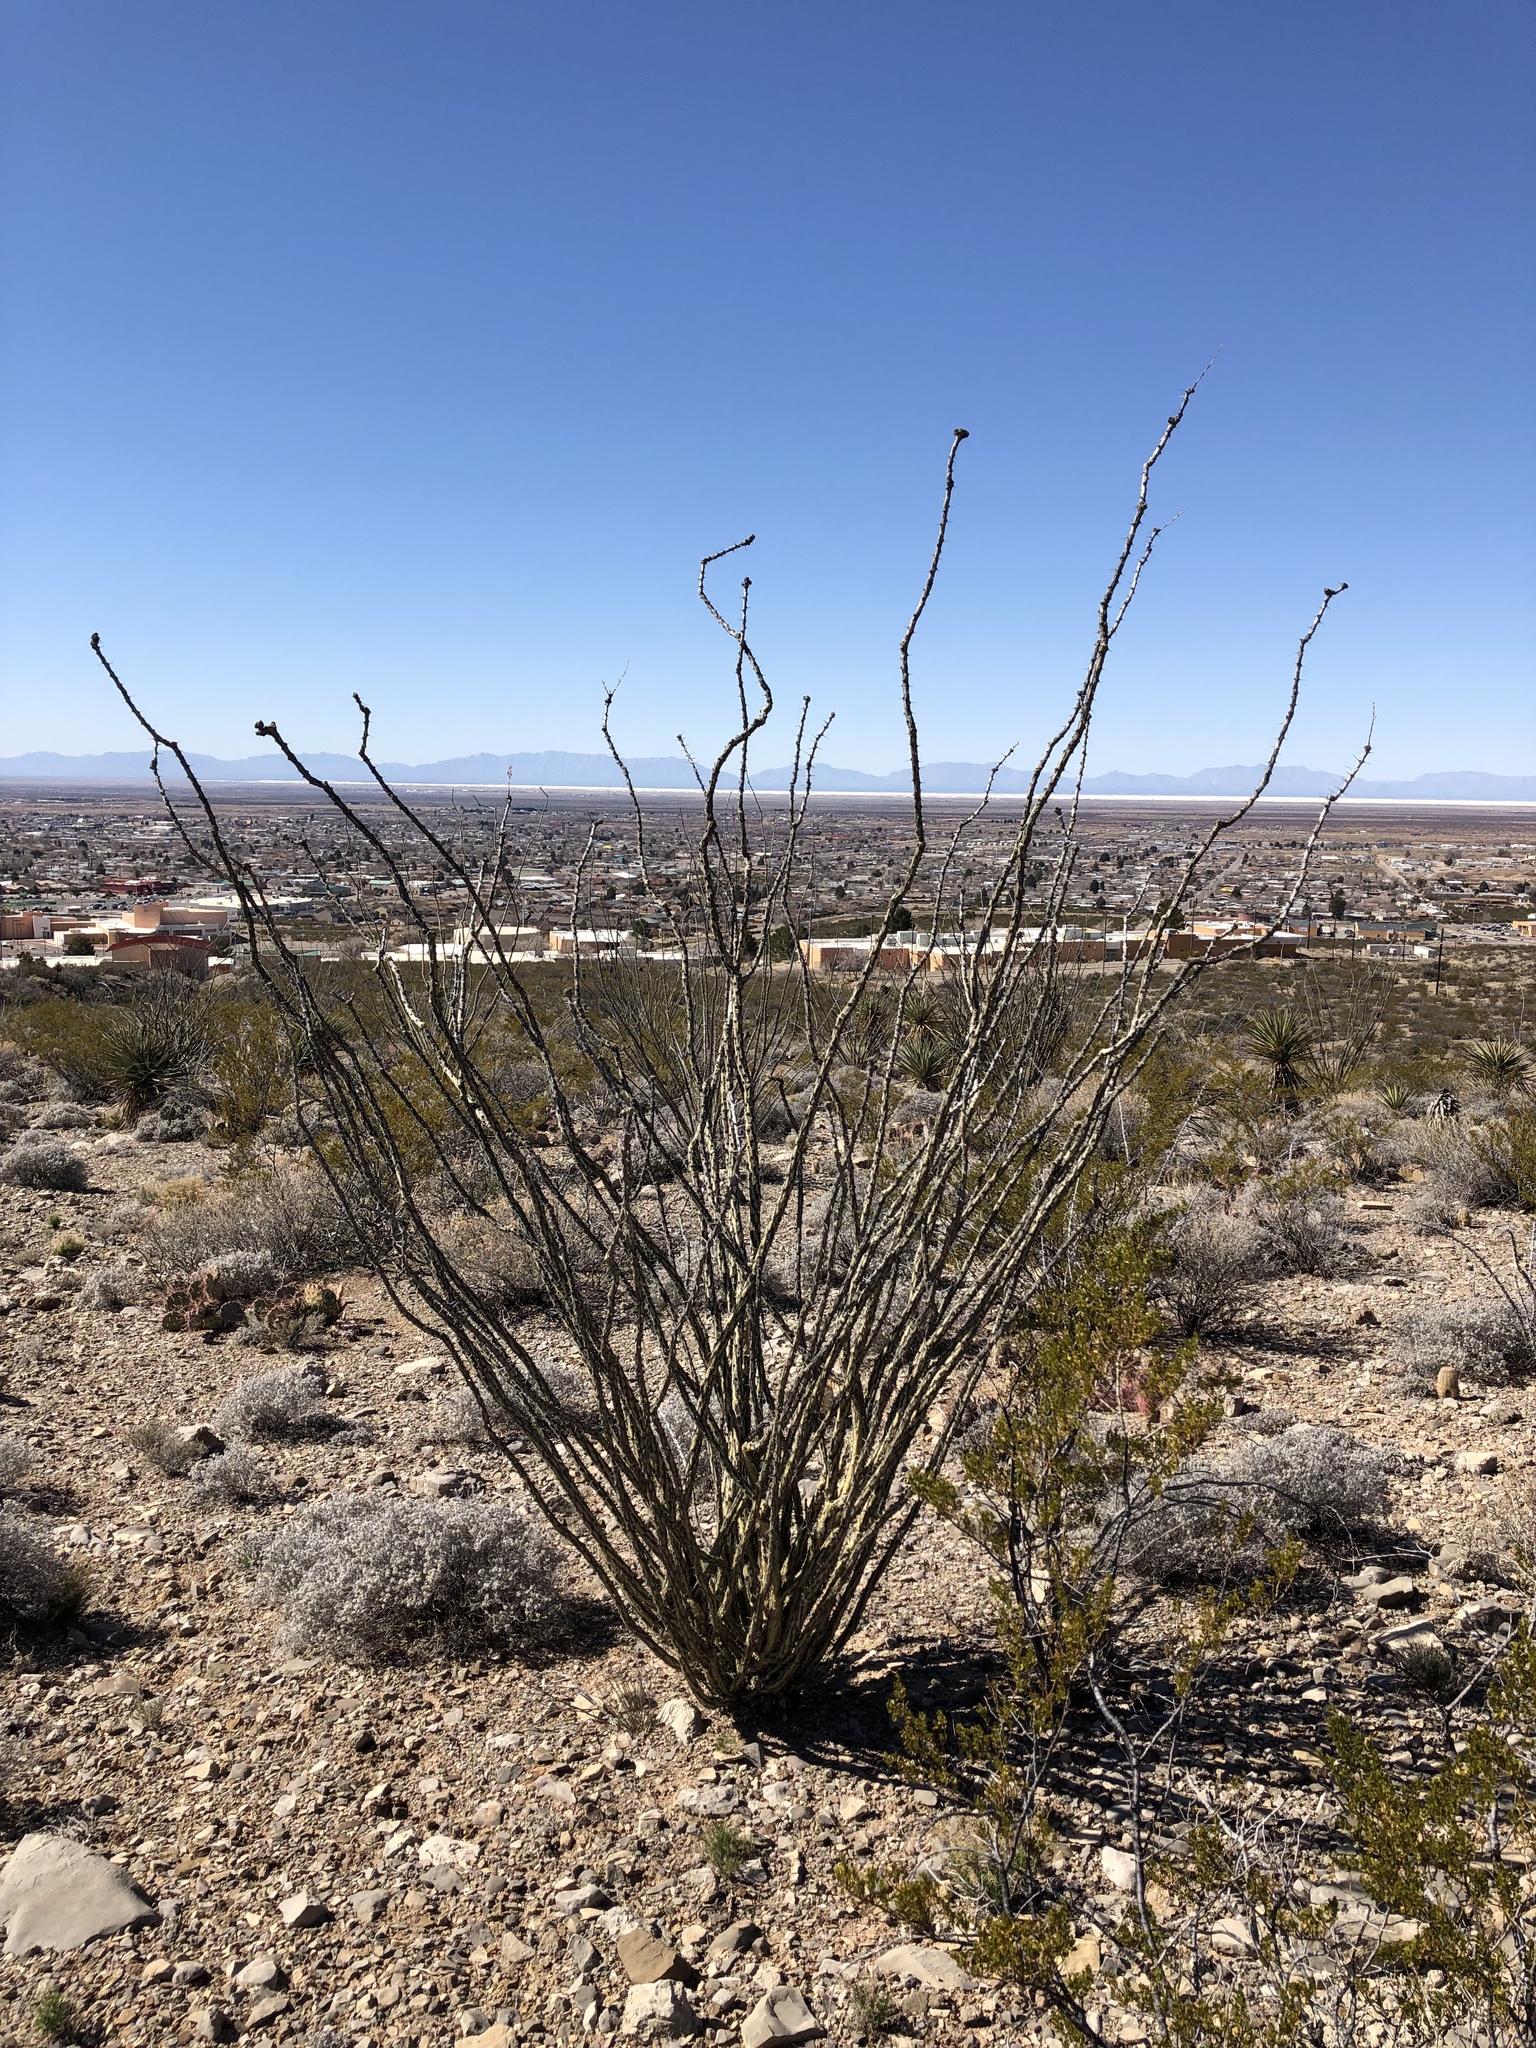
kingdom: Plantae
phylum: Tracheophyta
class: Magnoliopsida
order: Ericales
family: Fouquieriaceae
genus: Fouquieria
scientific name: Fouquieria splendens
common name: Vine-cactus
